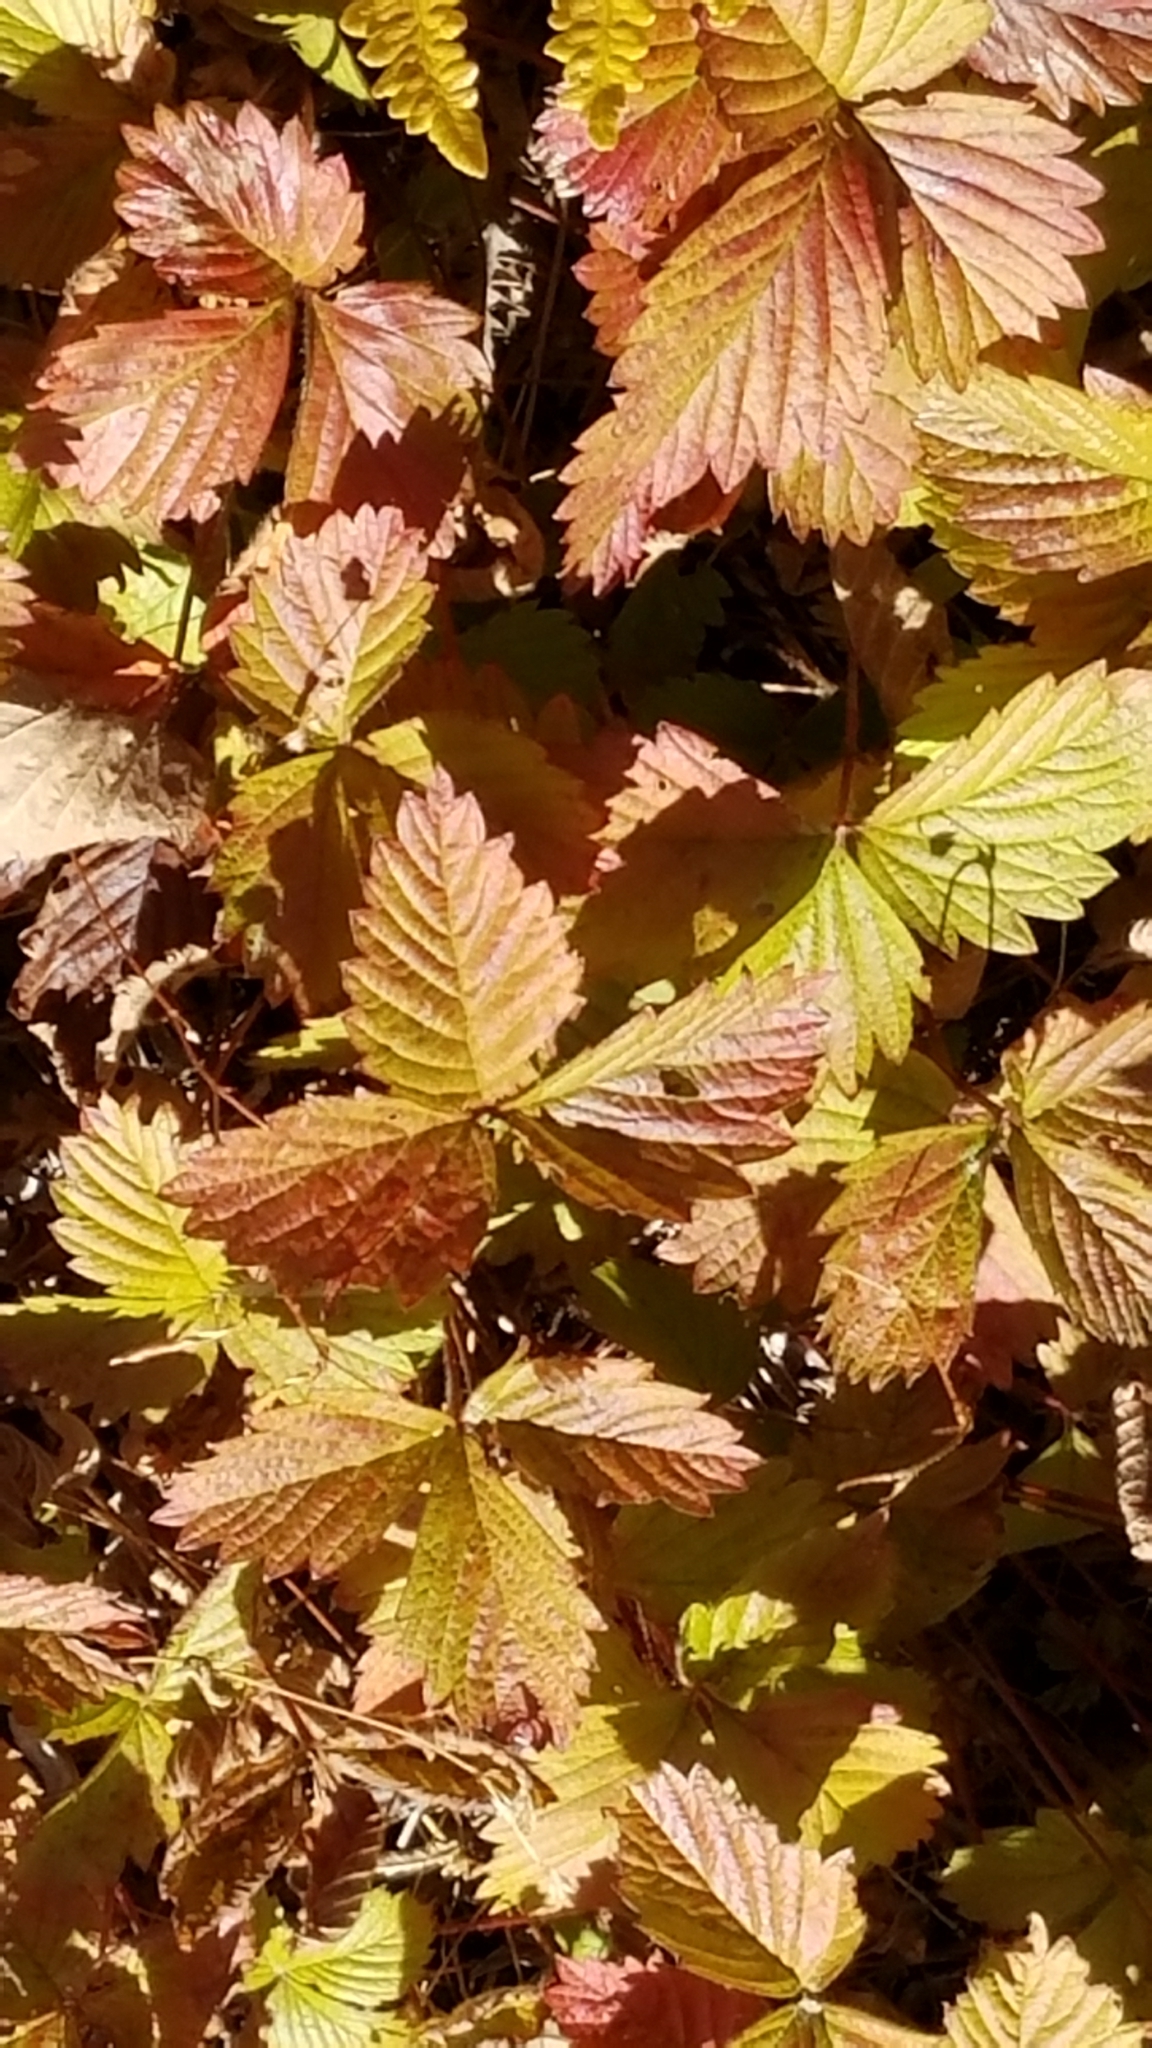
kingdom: Plantae
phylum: Tracheophyta
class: Magnoliopsida
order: Rosales
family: Rosaceae
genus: Fragaria
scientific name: Fragaria vesca
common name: Wild strawberry
